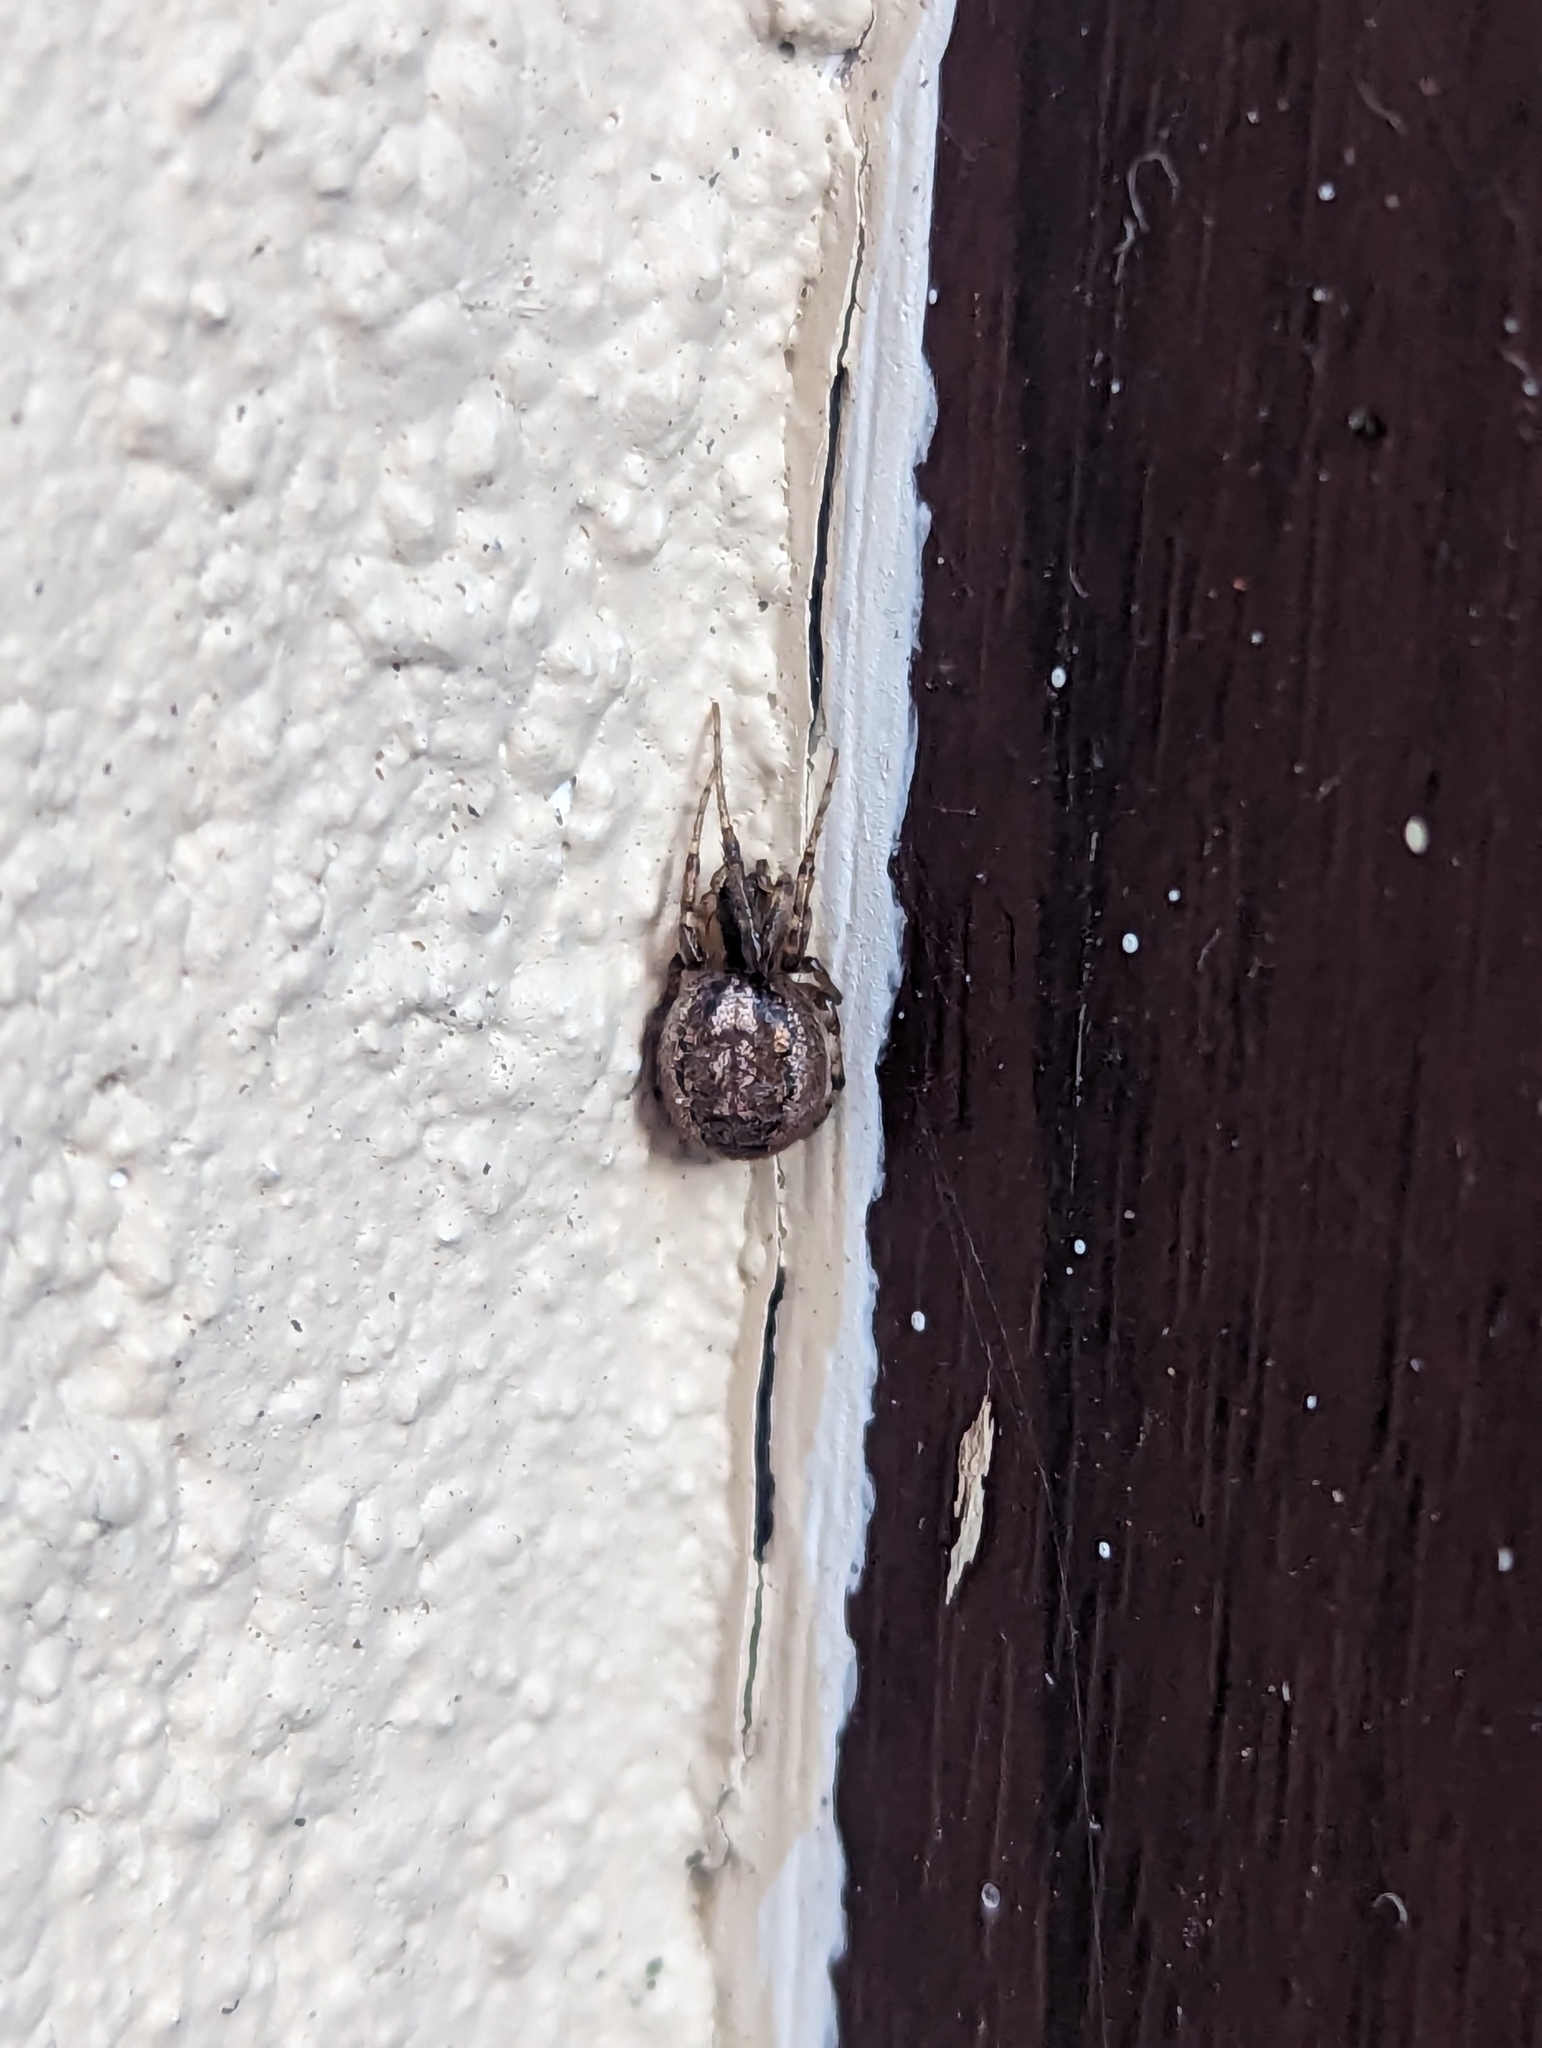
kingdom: Animalia
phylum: Arthropoda
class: Arachnida
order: Araneae
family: Araneidae
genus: Zygiella
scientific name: Zygiella x-notata
